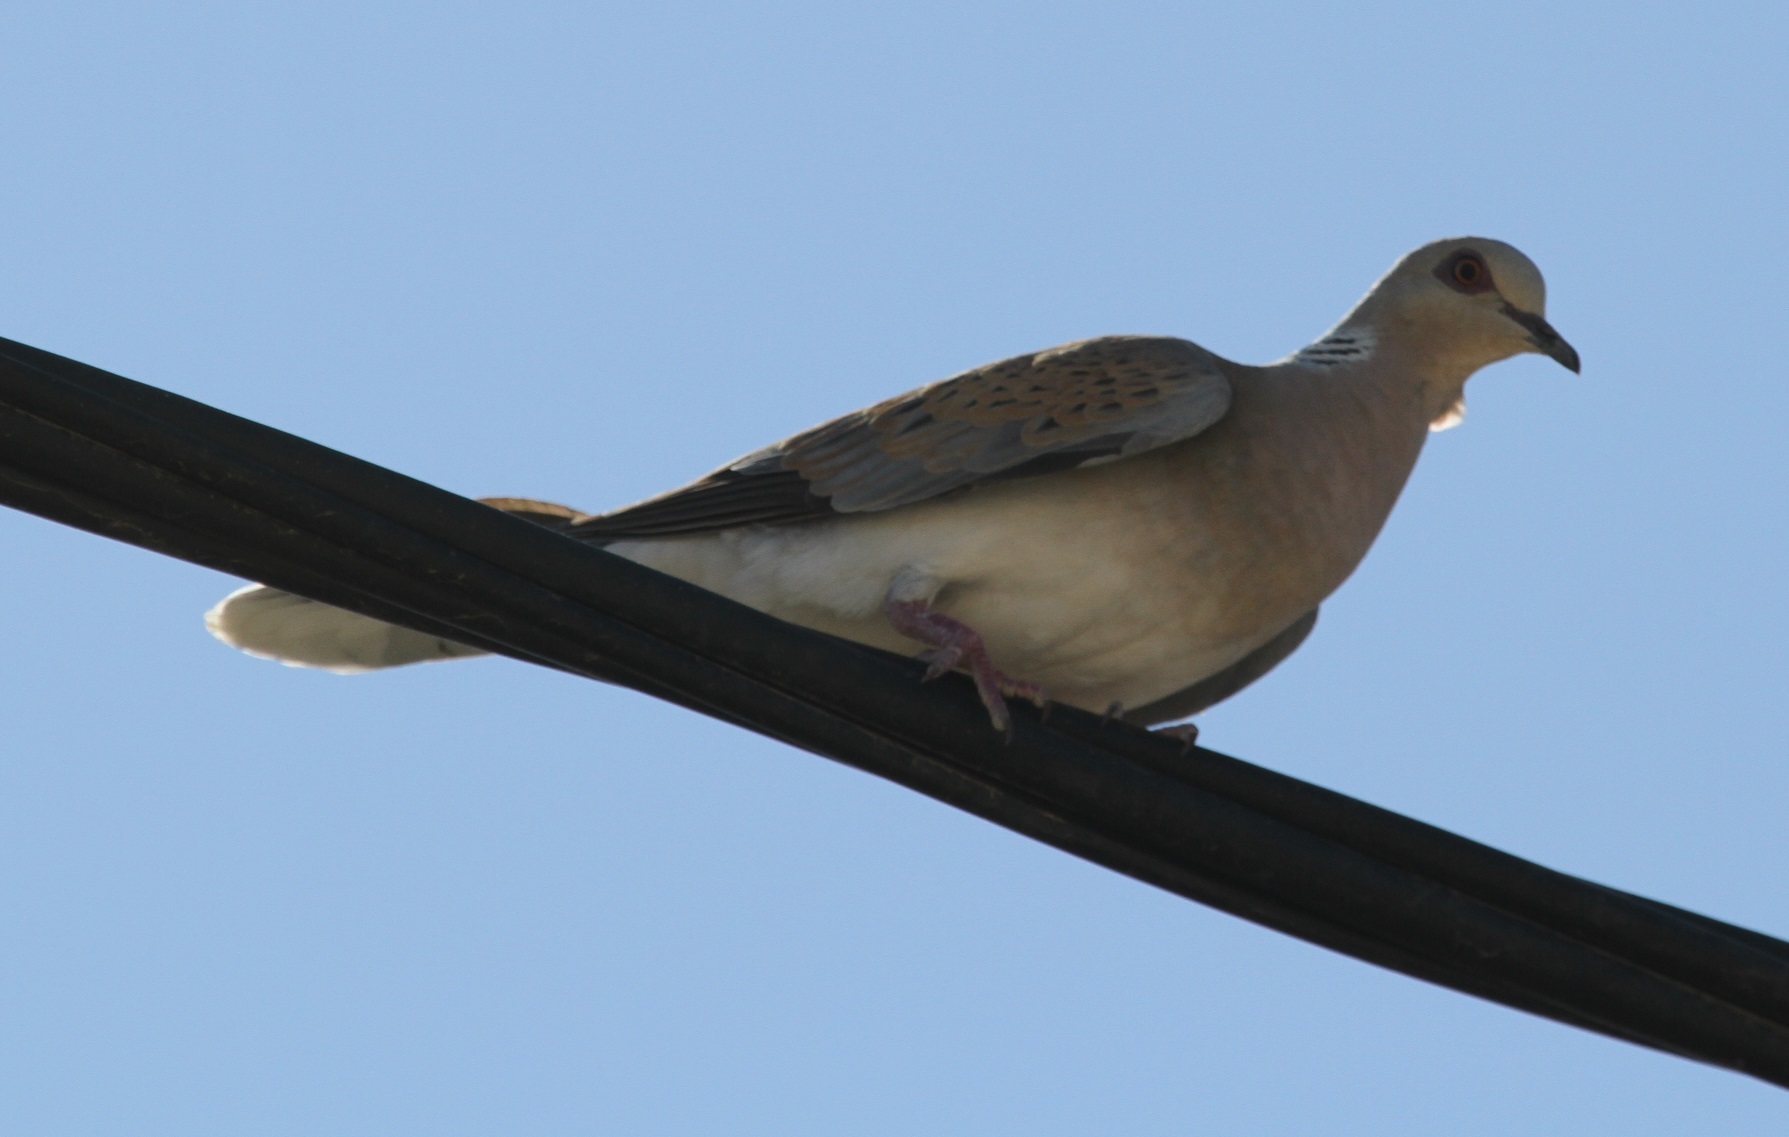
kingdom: Animalia
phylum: Chordata
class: Aves
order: Columbiformes
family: Columbidae
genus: Streptopelia
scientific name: Streptopelia turtur
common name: European turtle dove
